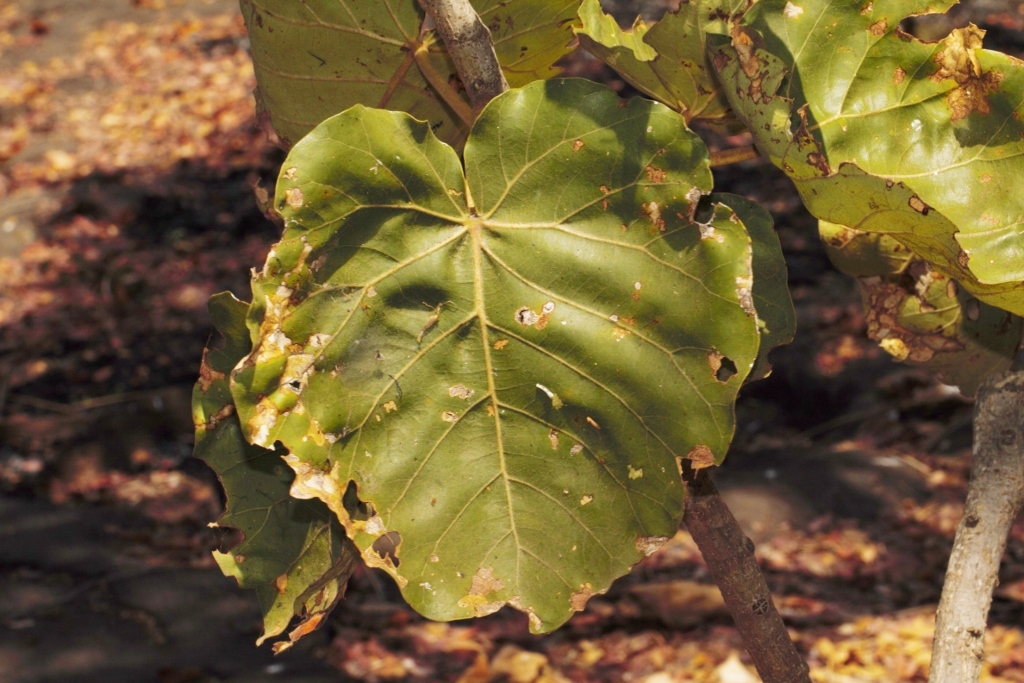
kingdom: Plantae
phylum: Tracheophyta
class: Magnoliopsida
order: Rosales
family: Moraceae
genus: Ficus
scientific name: Ficus abutilifolia
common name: Large-leaved rock fig
